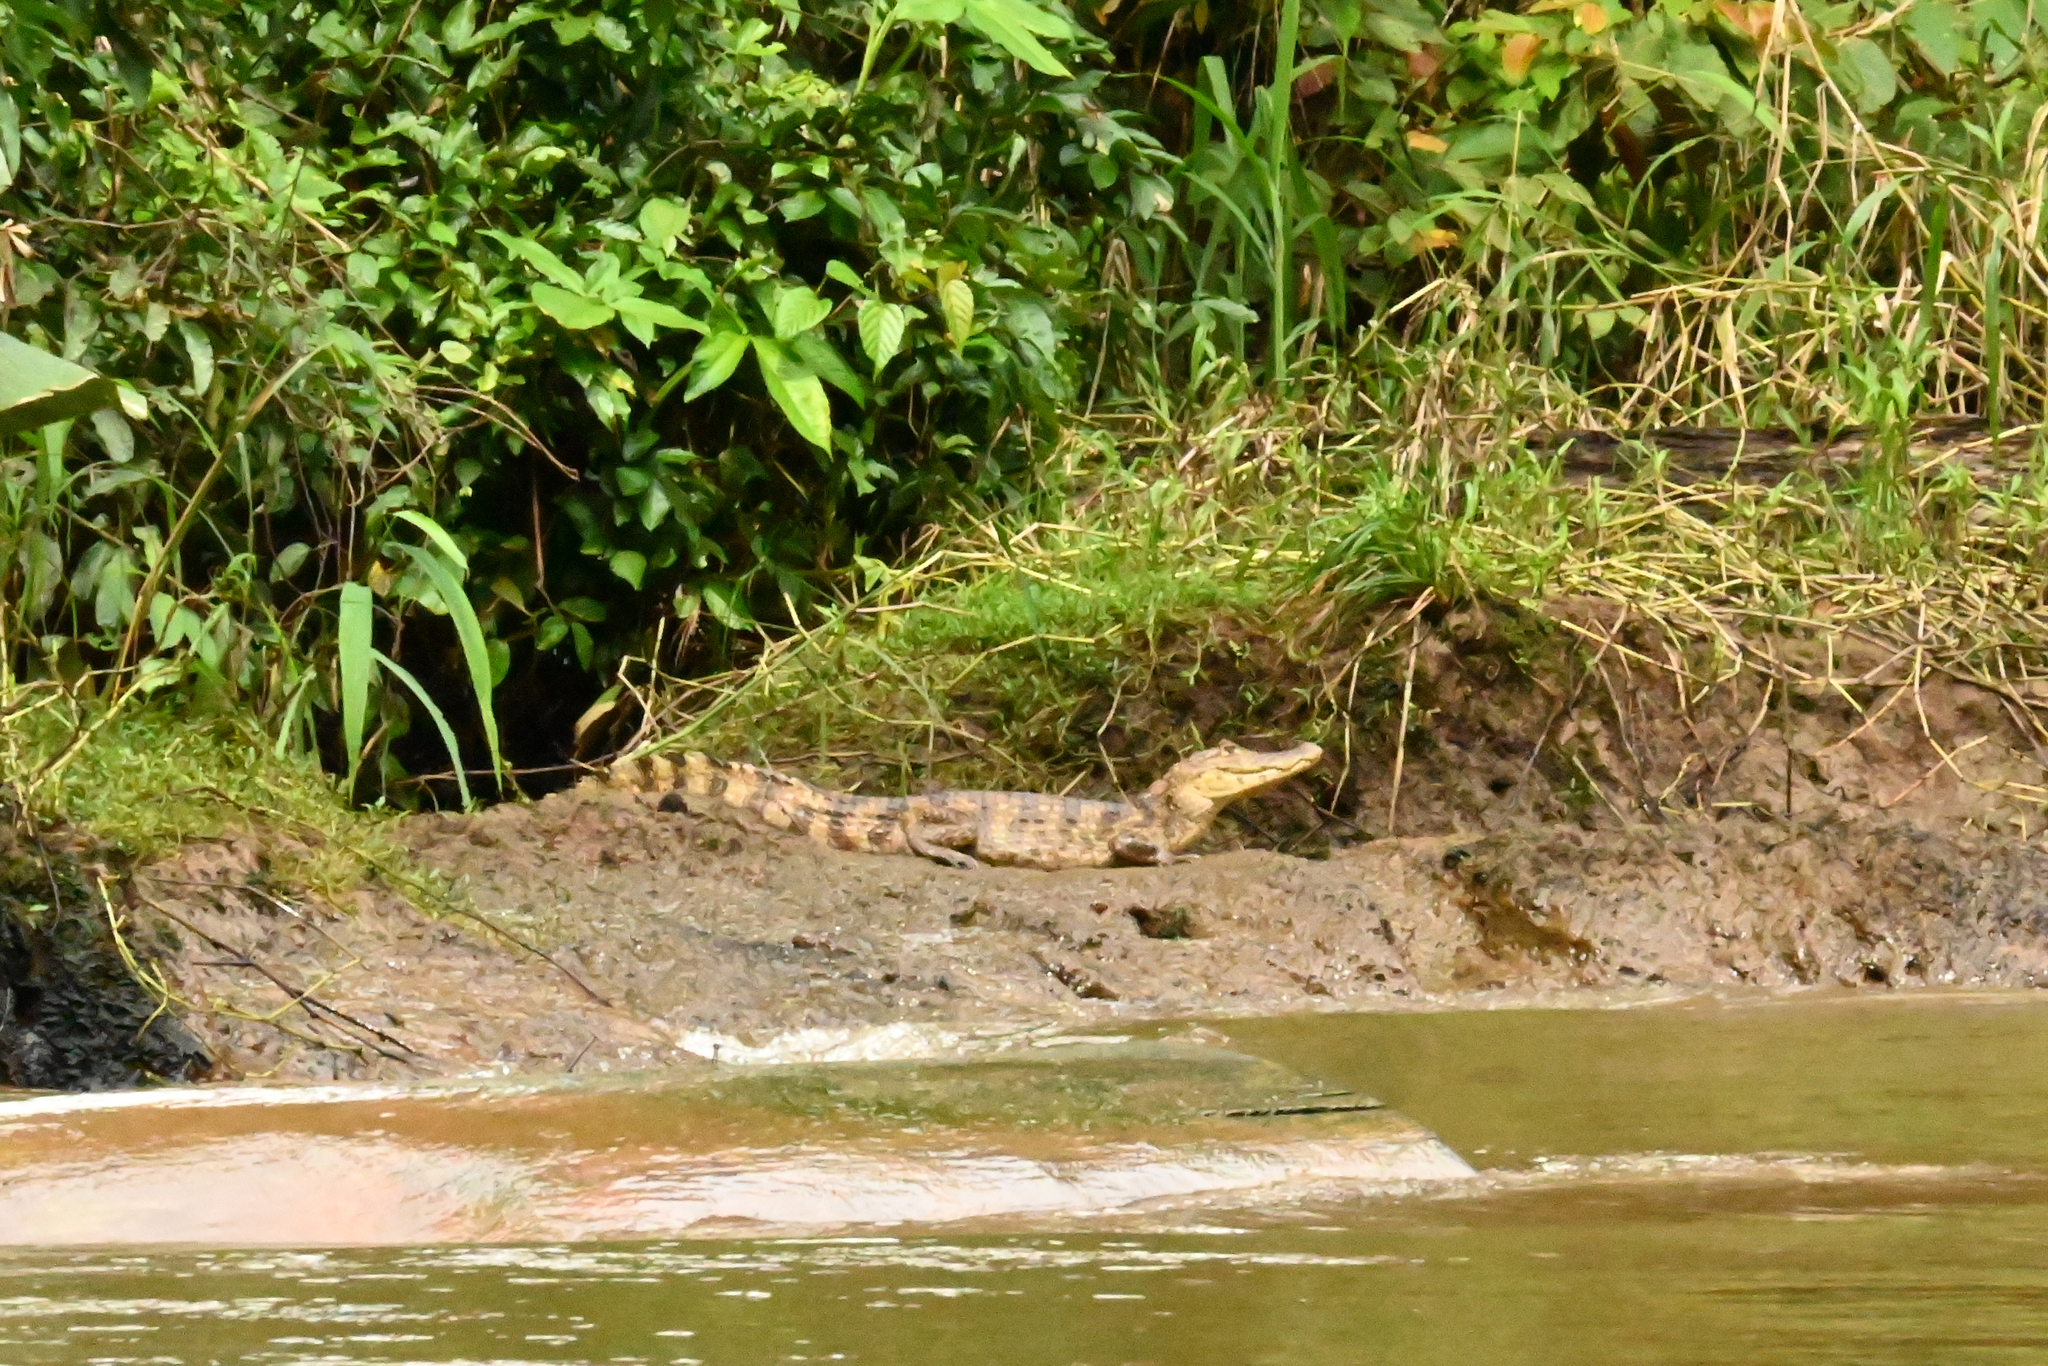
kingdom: Animalia
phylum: Chordata
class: Crocodylia
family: Alligatoridae
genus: Caiman
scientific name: Caiman crocodilus
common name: Common caiman
